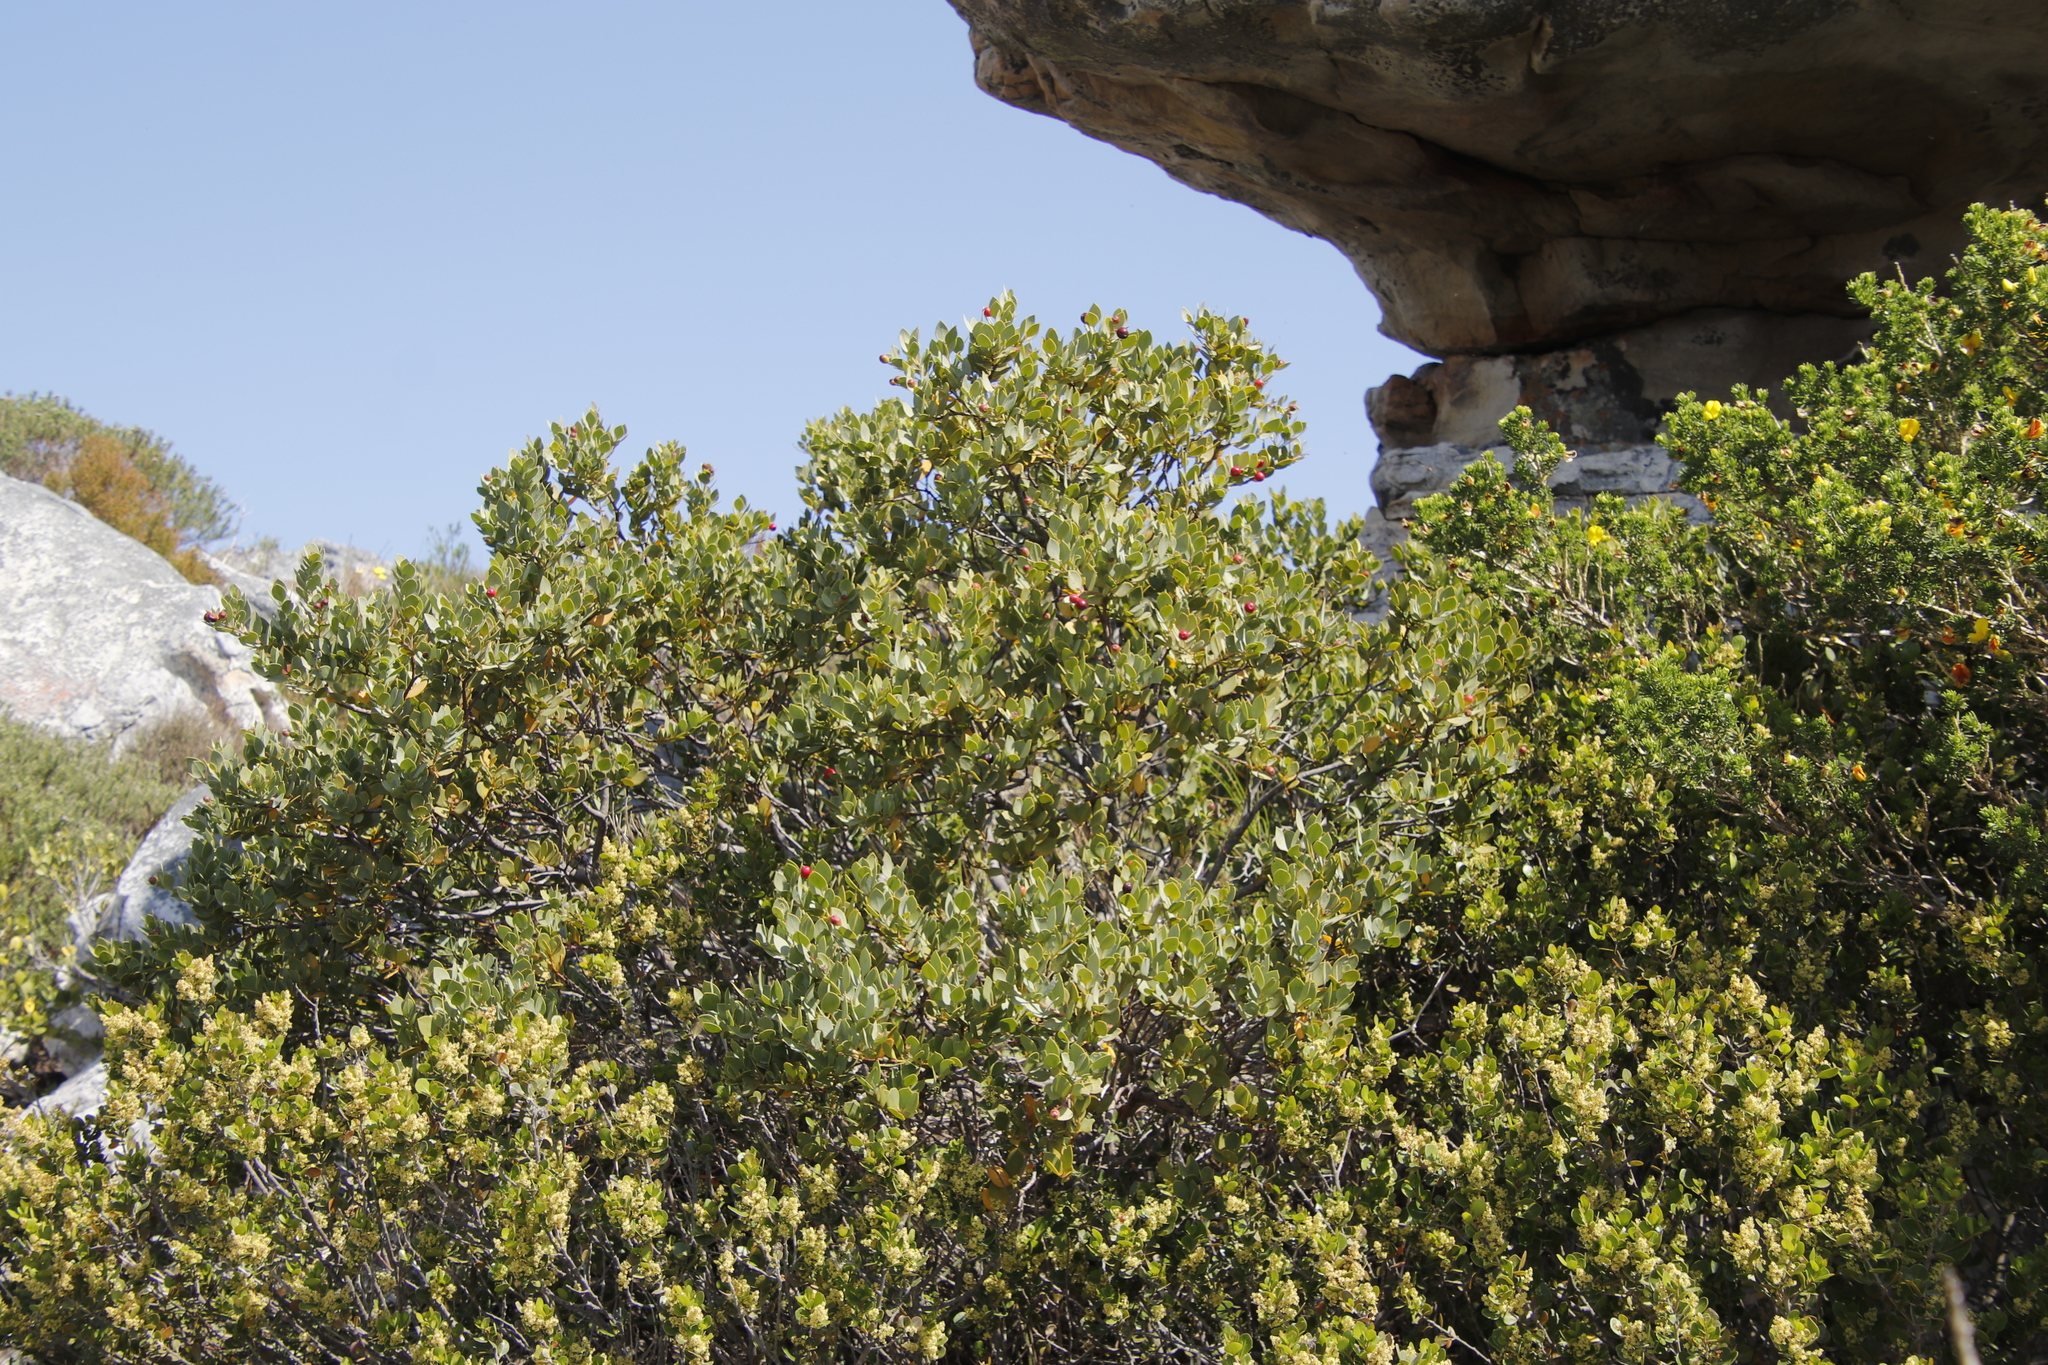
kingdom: Plantae
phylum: Tracheophyta
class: Magnoliopsida
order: Santalales
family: Santalaceae
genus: Osyris
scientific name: Osyris compressa
